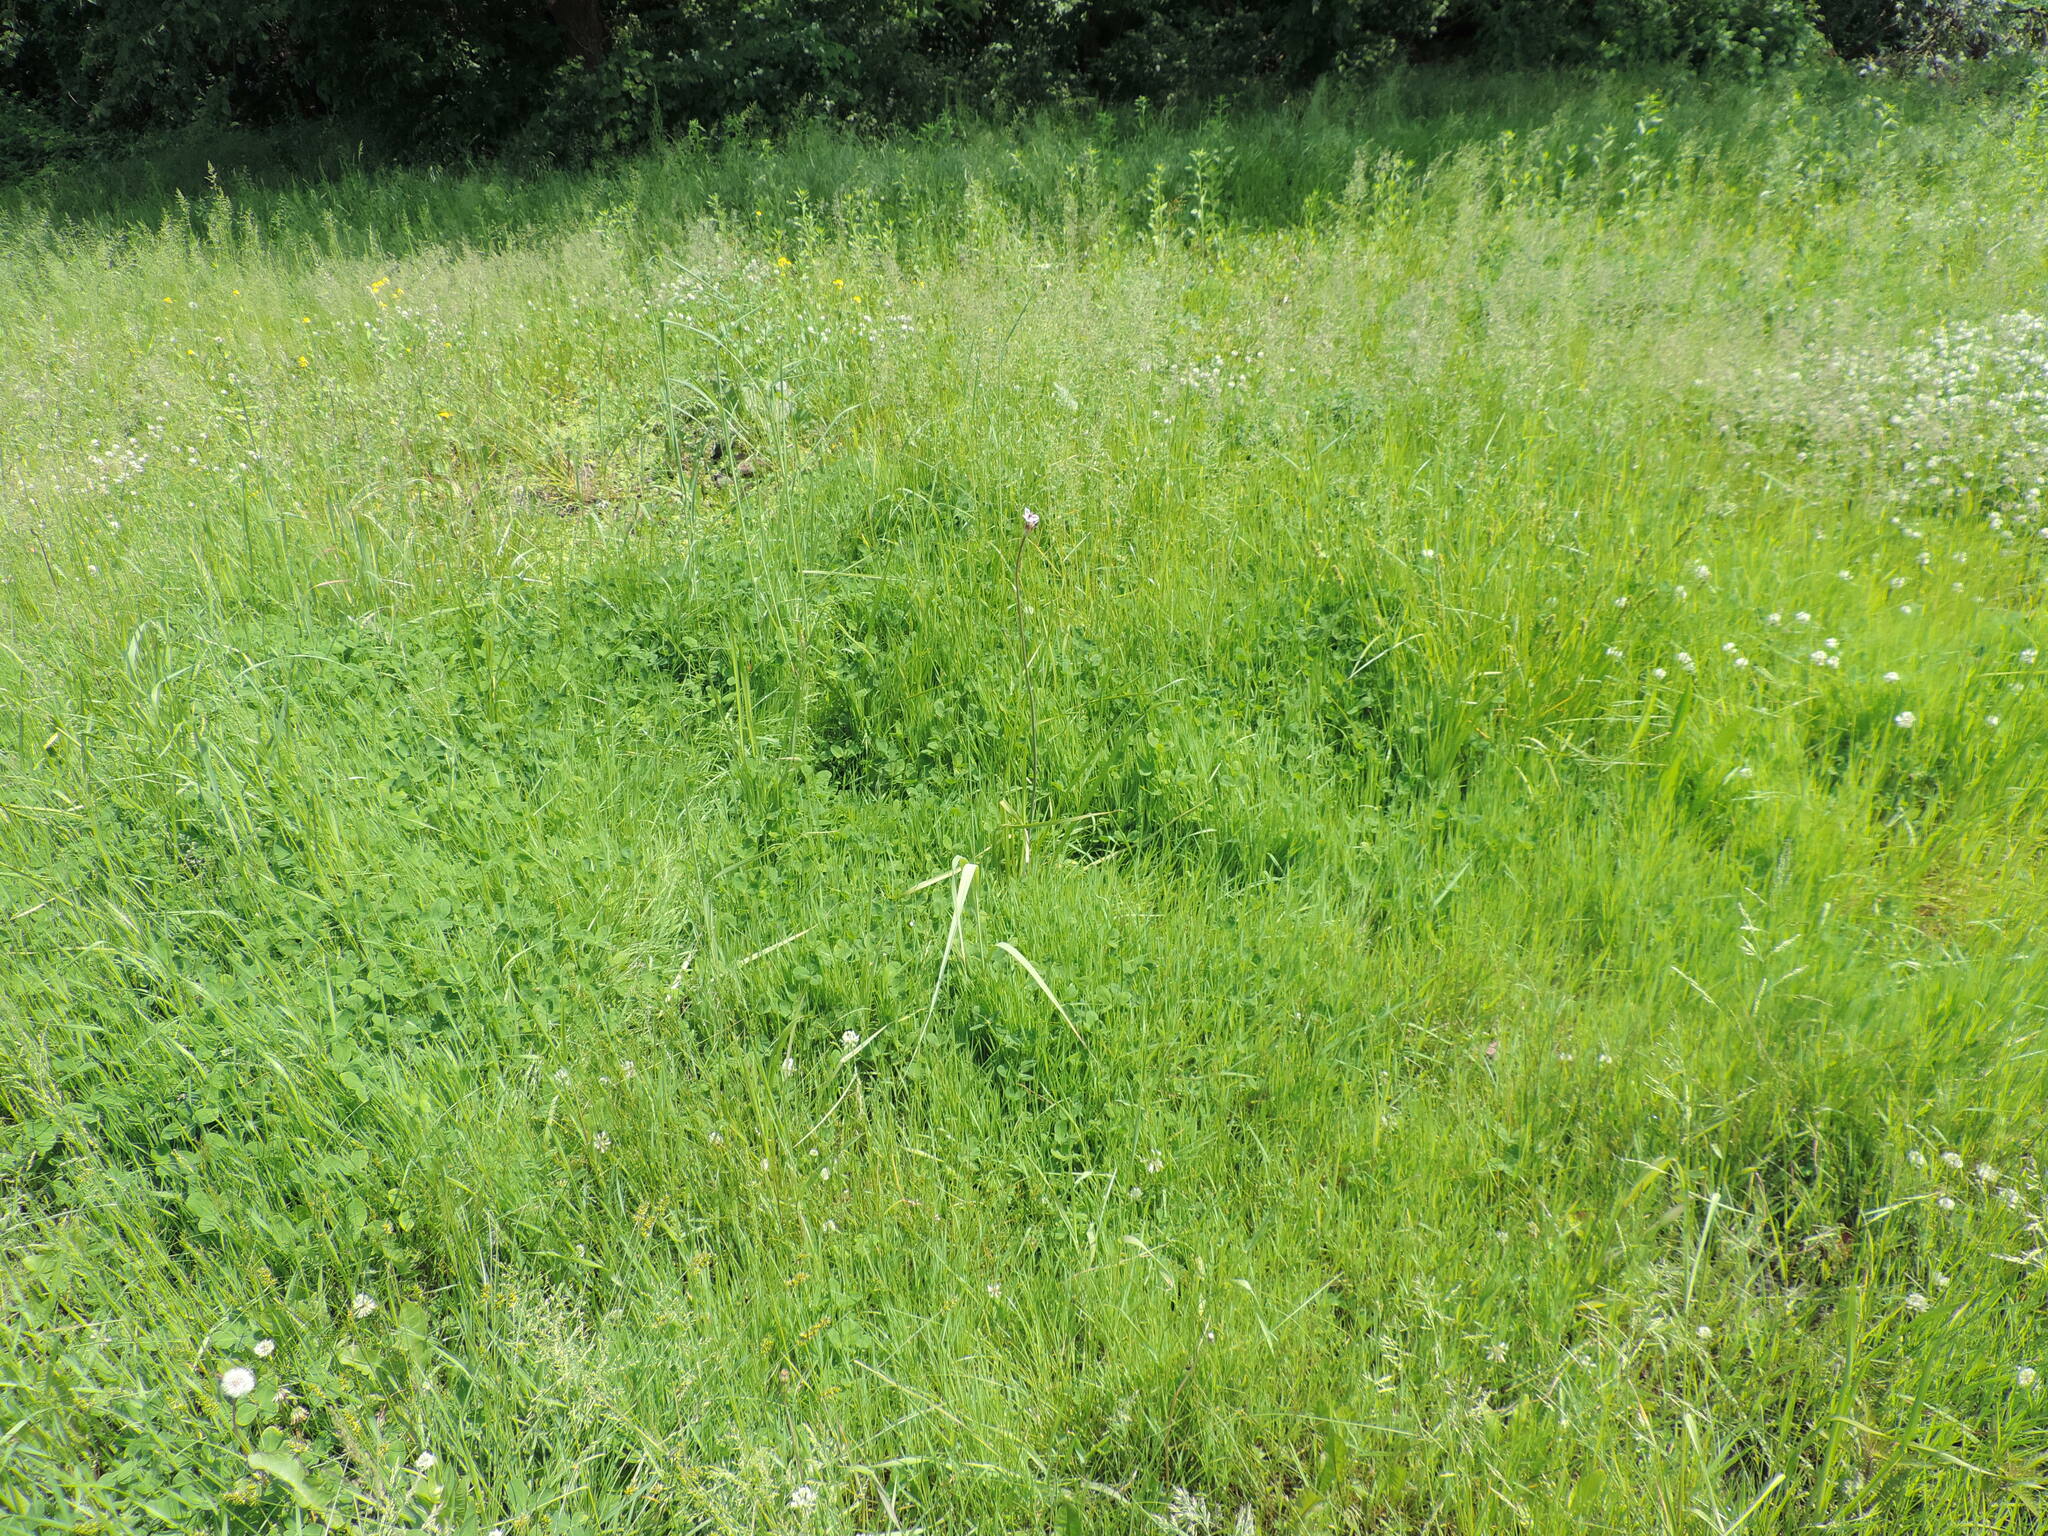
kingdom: Plantae
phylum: Tracheophyta
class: Liliopsida
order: Alismatales
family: Butomaceae
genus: Butomus
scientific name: Butomus umbellatus
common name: Flowering-rush
